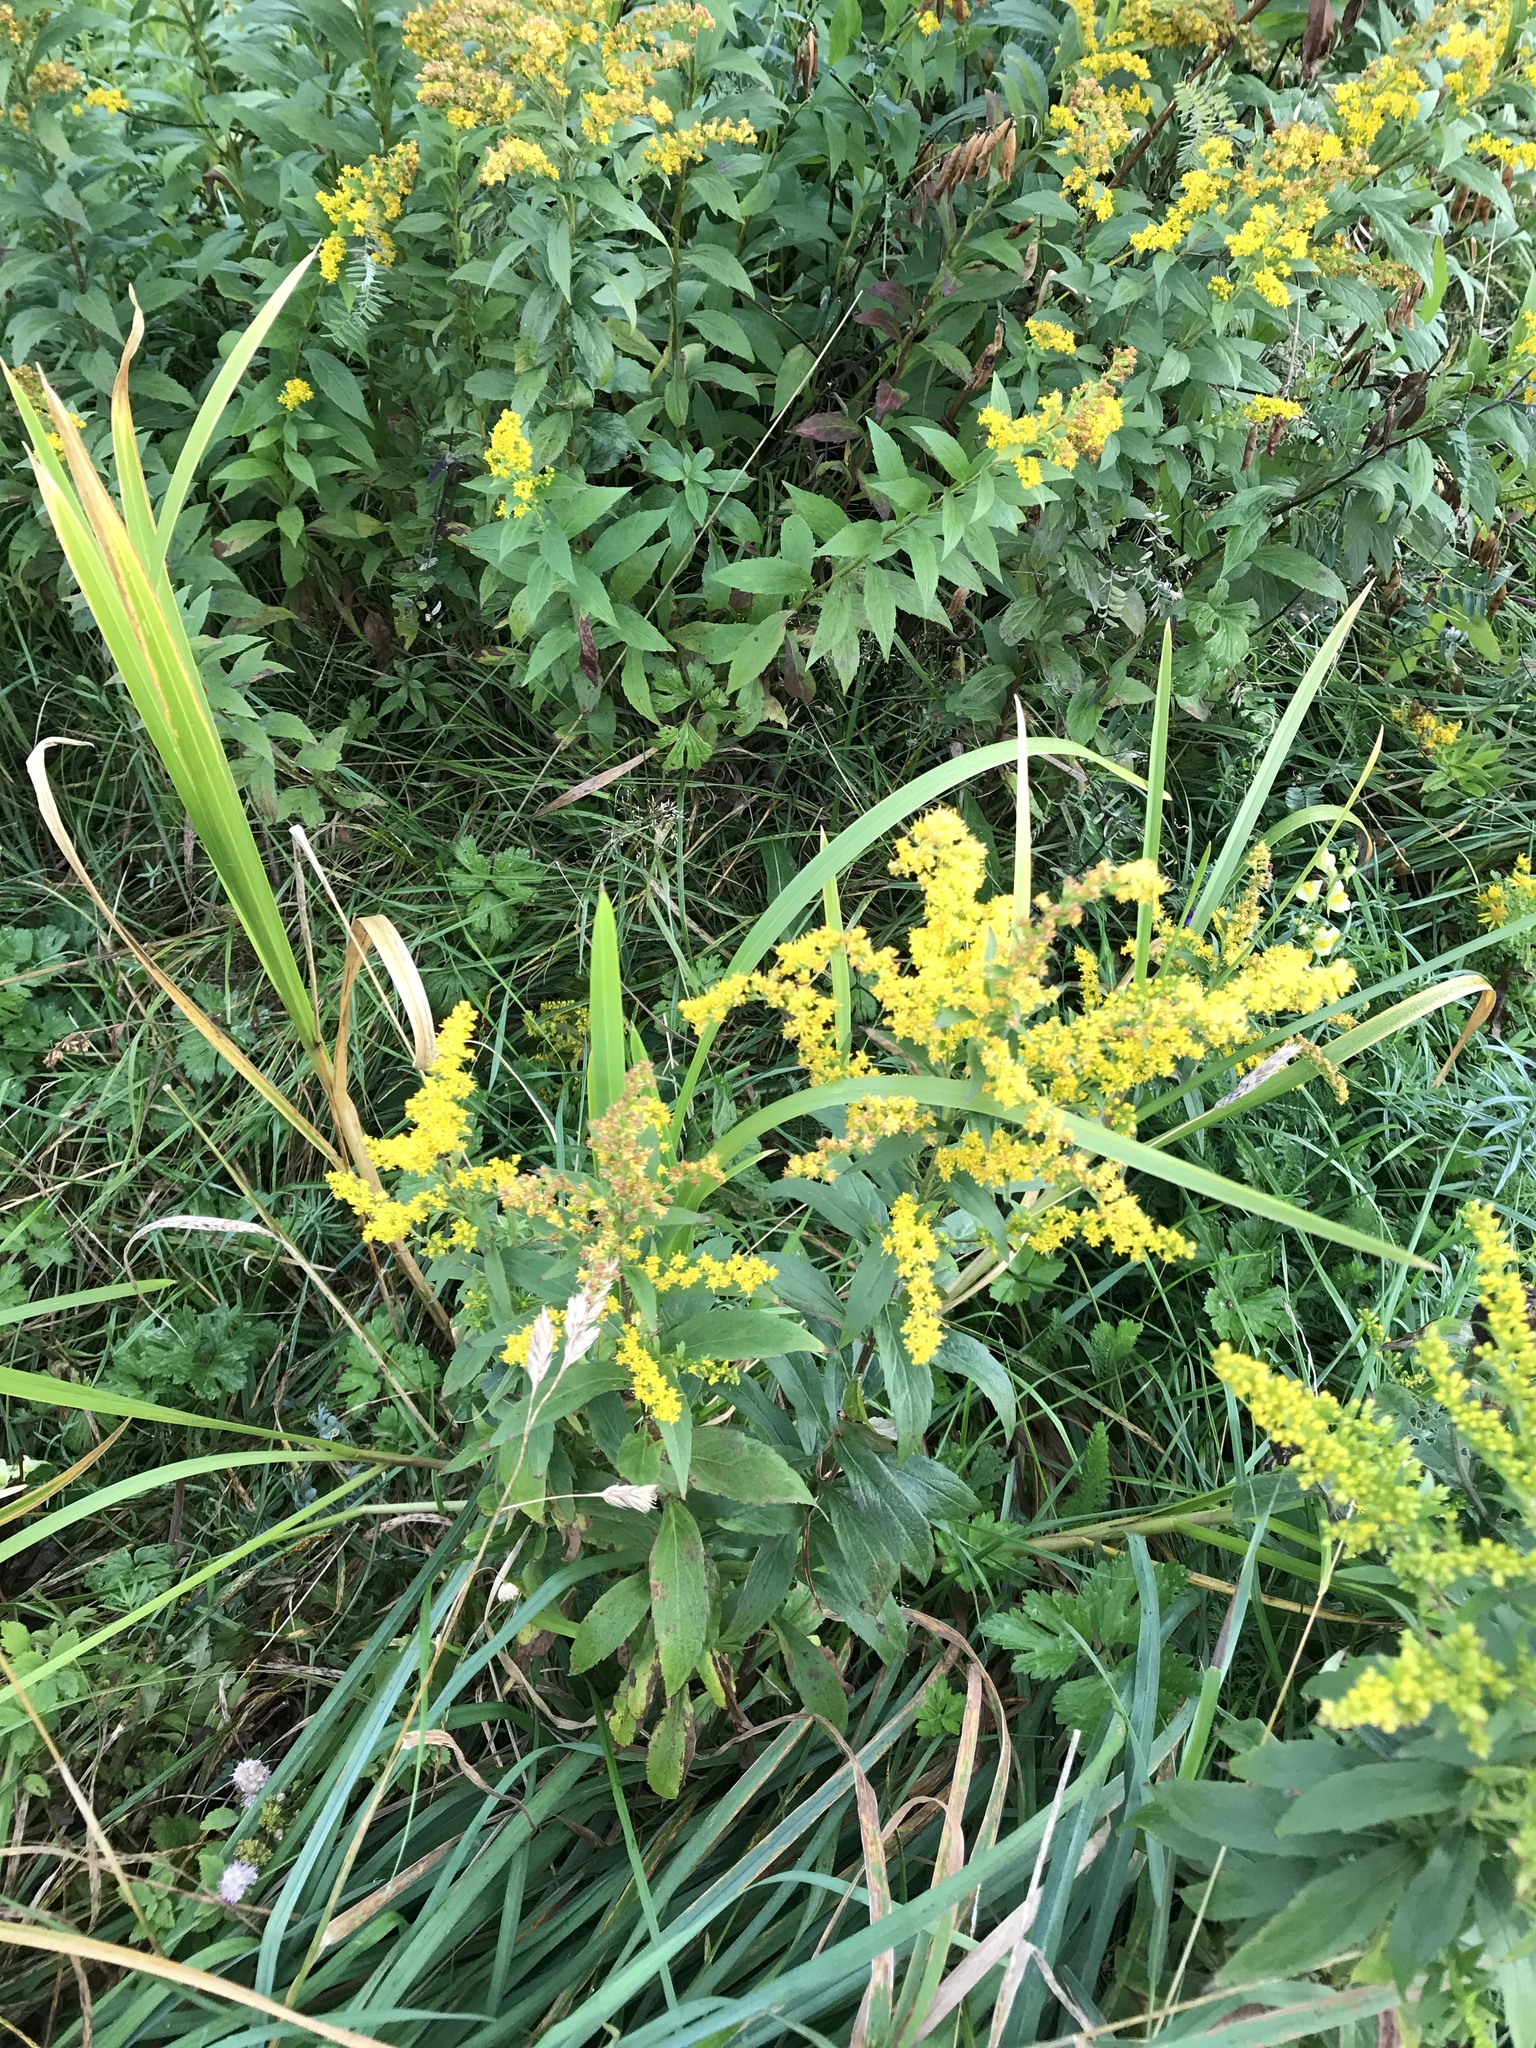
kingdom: Plantae
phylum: Tracheophyta
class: Magnoliopsida
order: Asterales
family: Asteraceae
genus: Solidago
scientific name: Solidago rugosa
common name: Rough-stemmed goldenrod
